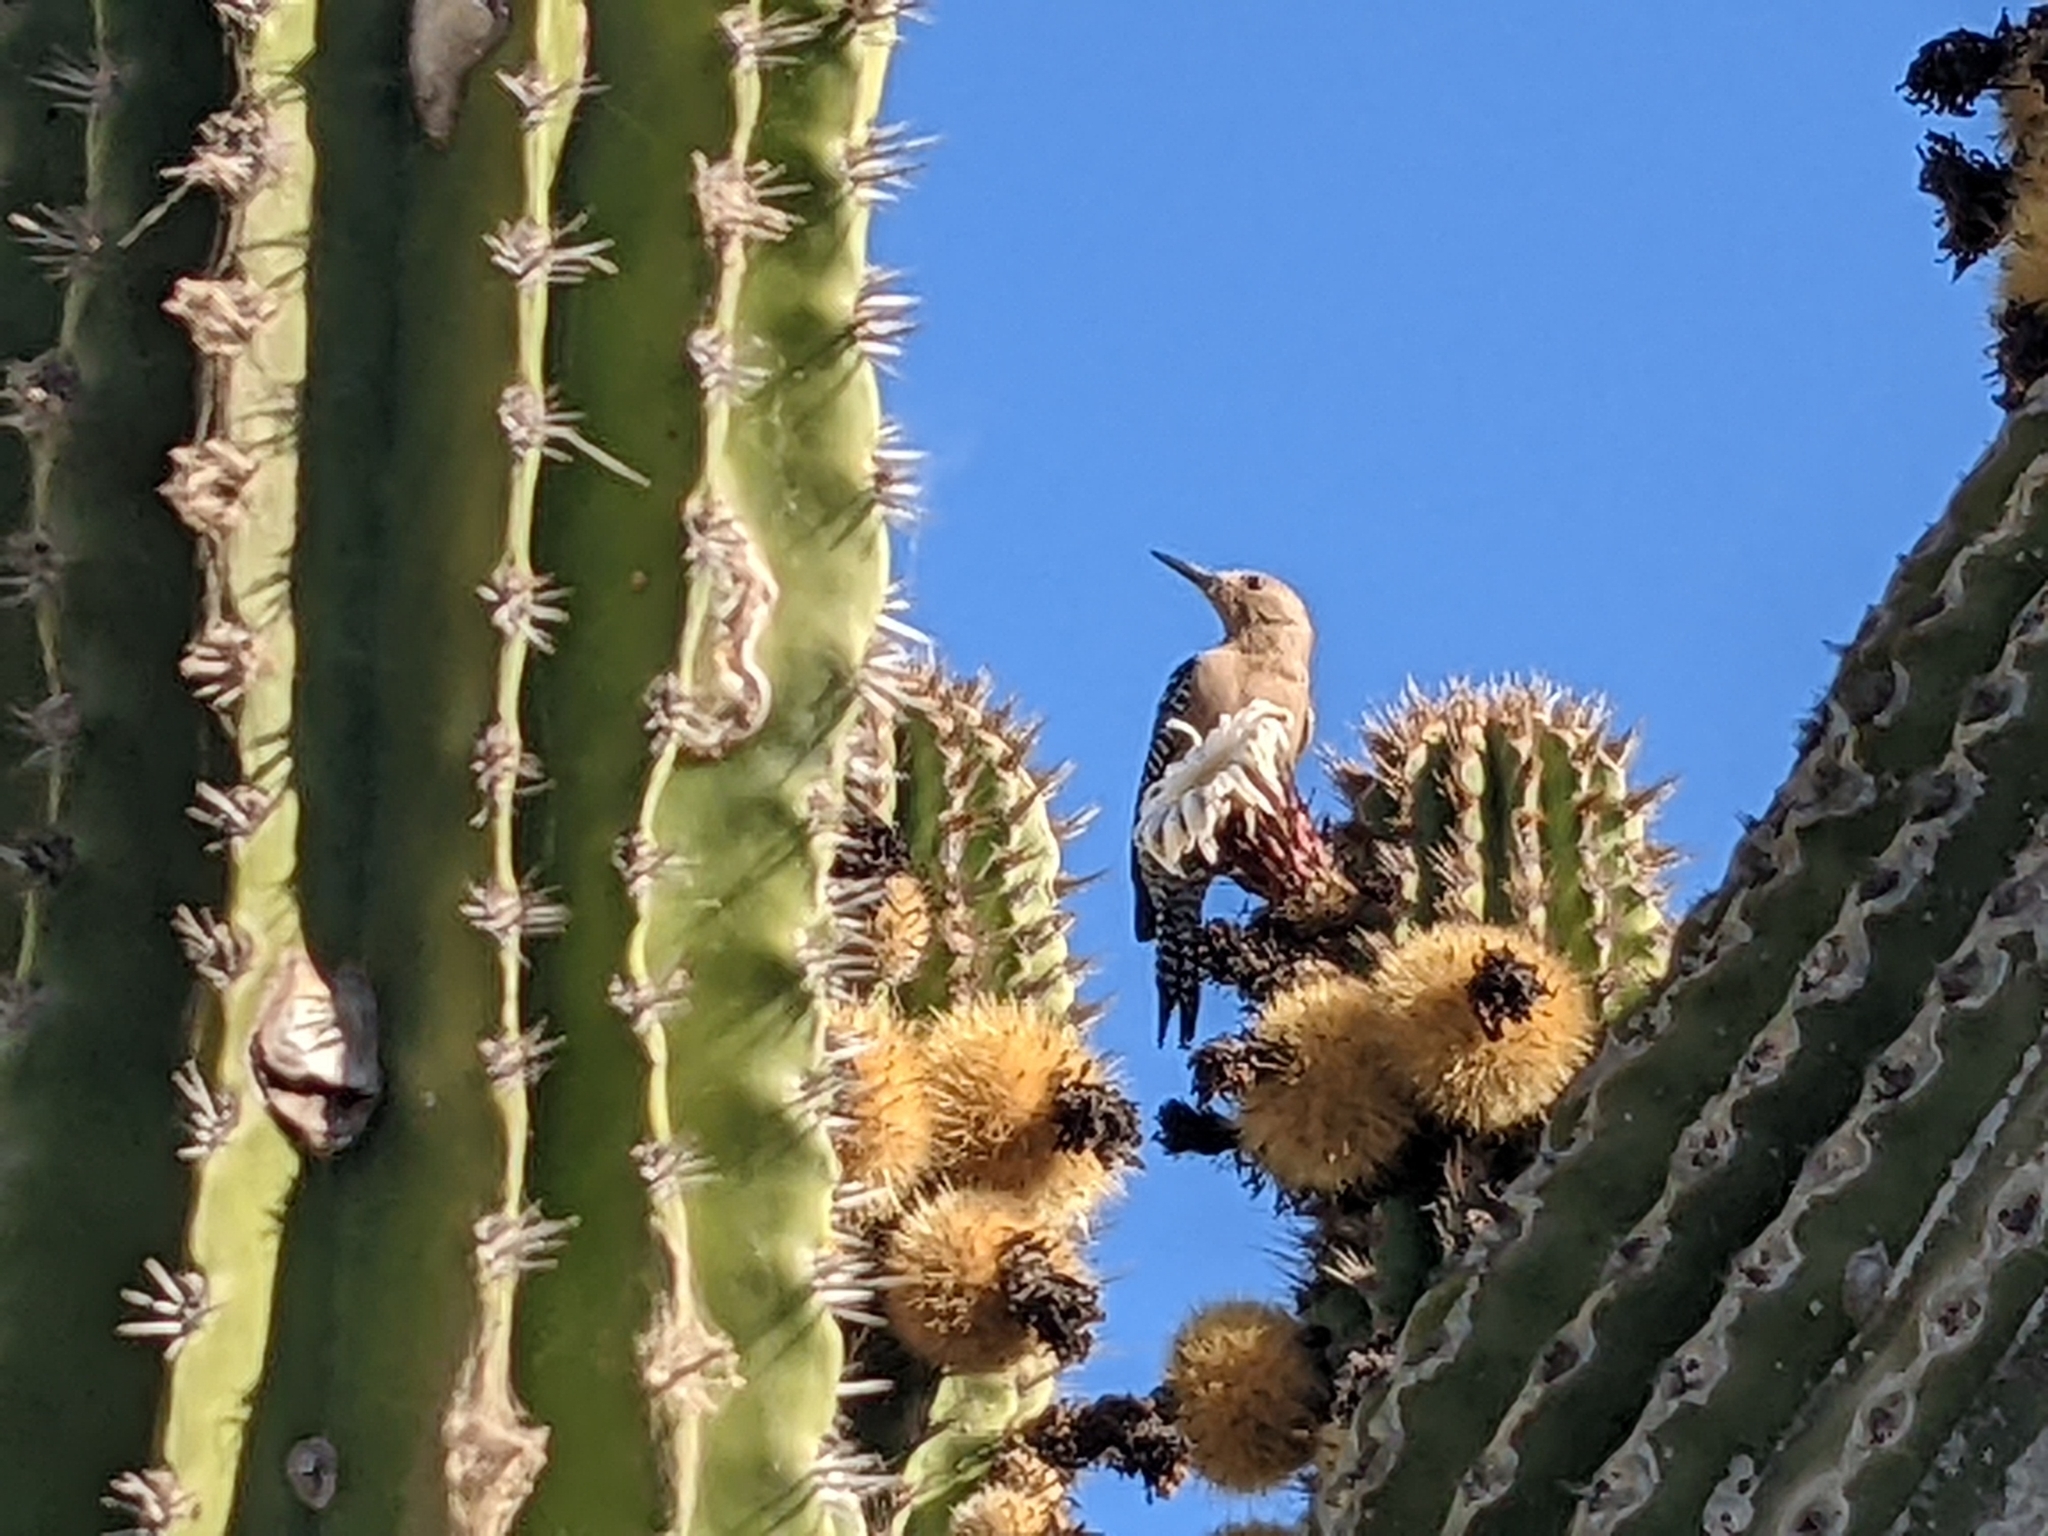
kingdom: Animalia
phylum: Chordata
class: Aves
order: Piciformes
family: Picidae
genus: Melanerpes
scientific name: Melanerpes uropygialis
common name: Gila woodpecker
